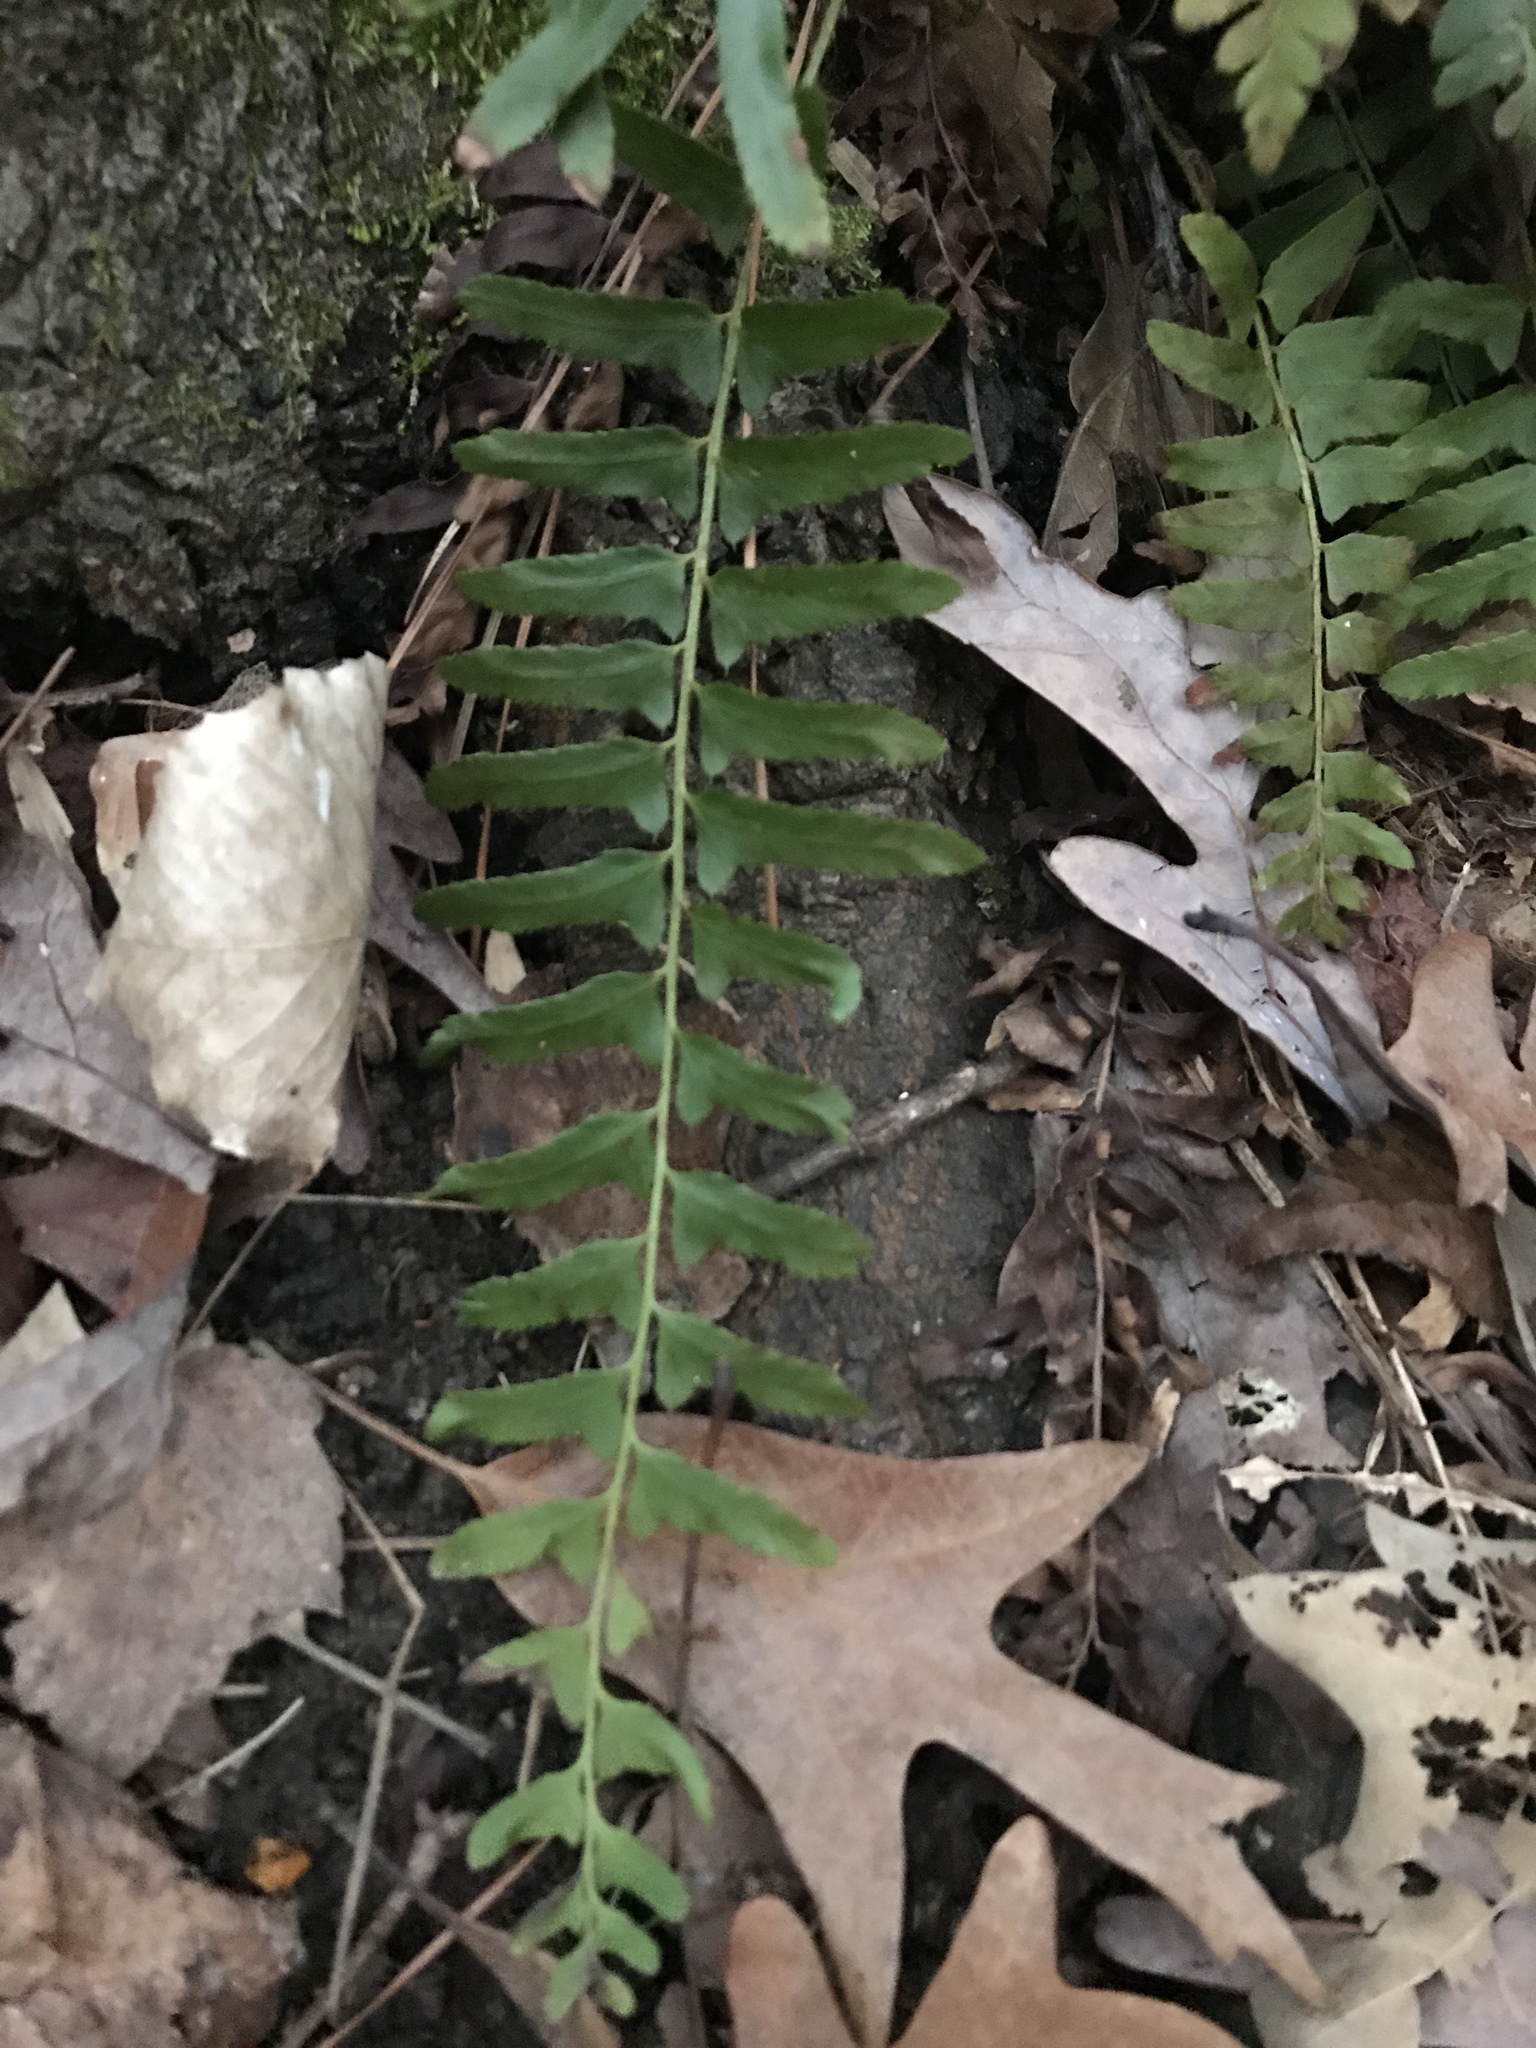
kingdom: Plantae
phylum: Tracheophyta
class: Polypodiopsida
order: Polypodiales
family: Dryopteridaceae
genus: Polystichum
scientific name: Polystichum acrostichoides
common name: Christmas fern
